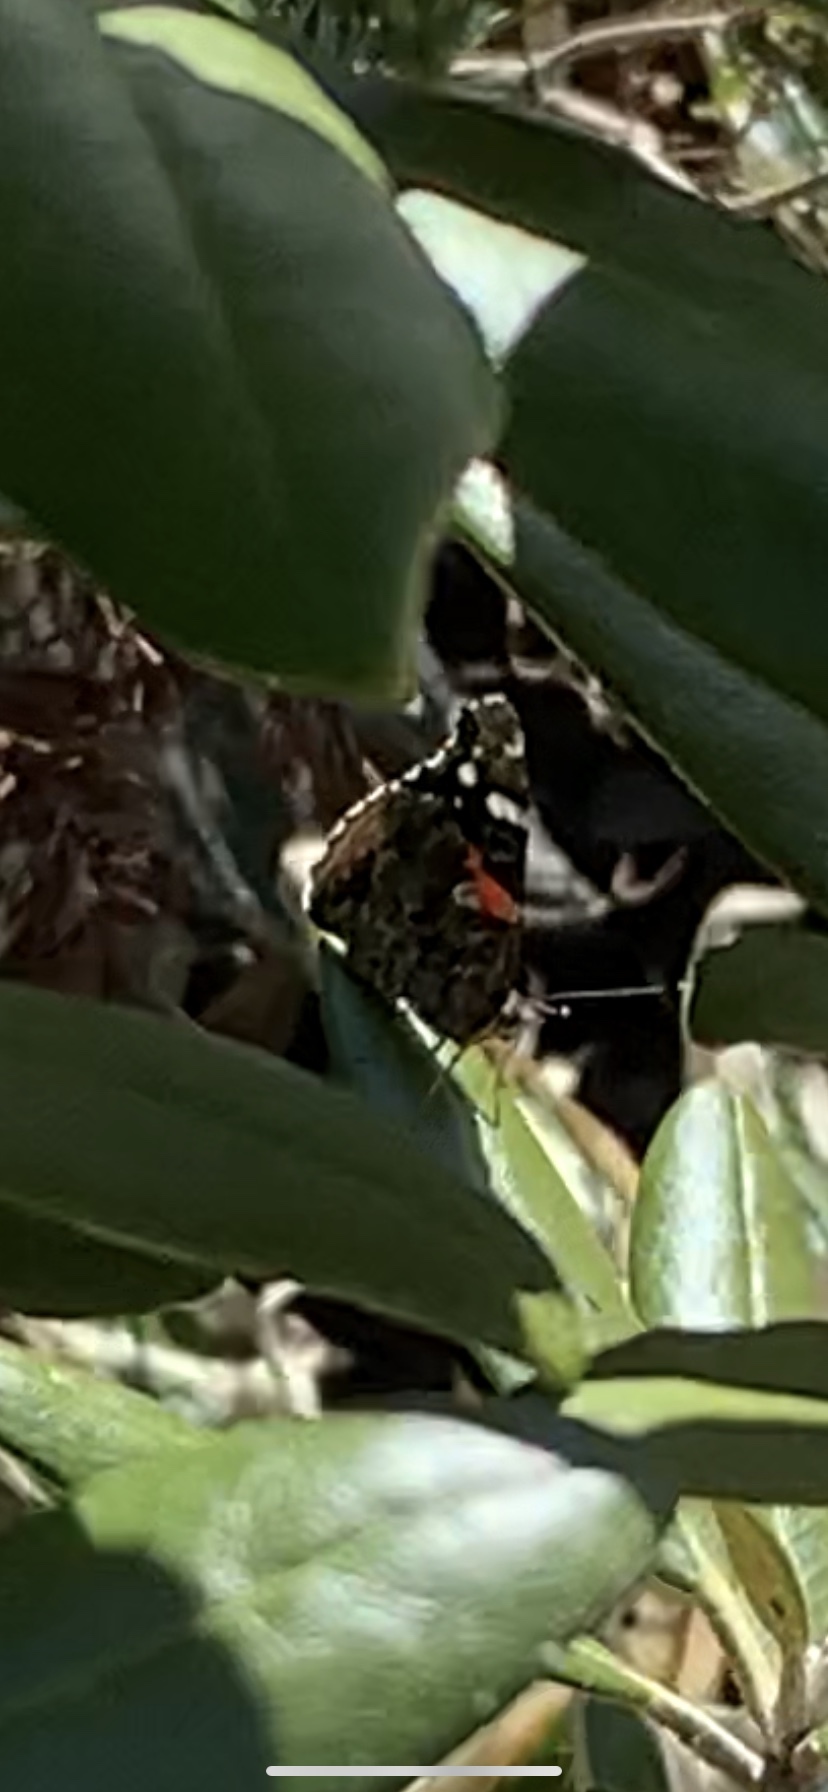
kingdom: Animalia
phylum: Arthropoda
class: Insecta
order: Lepidoptera
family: Nymphalidae
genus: Vanessa
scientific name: Vanessa atalanta
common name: Red admiral
